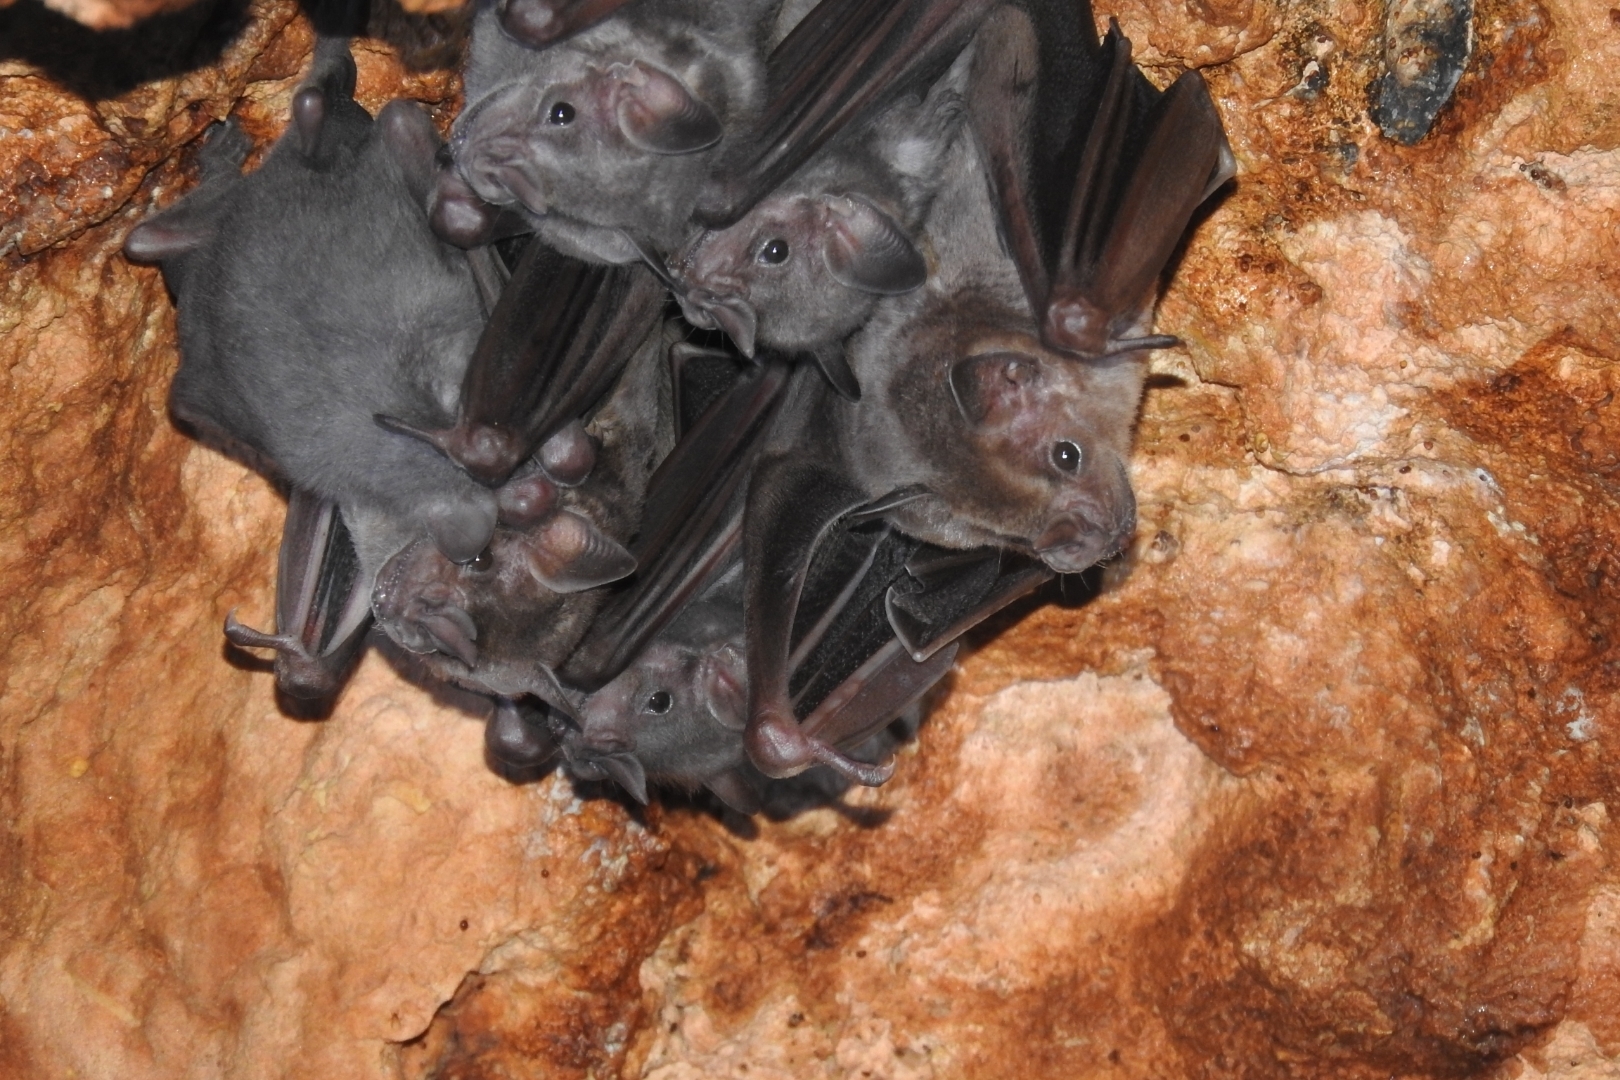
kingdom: Animalia
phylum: Chordata
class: Mammalia
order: Chiroptera
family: Phyllostomidae
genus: Artibeus
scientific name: Artibeus jamaicensis
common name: Jamaican fruit-eating bat
